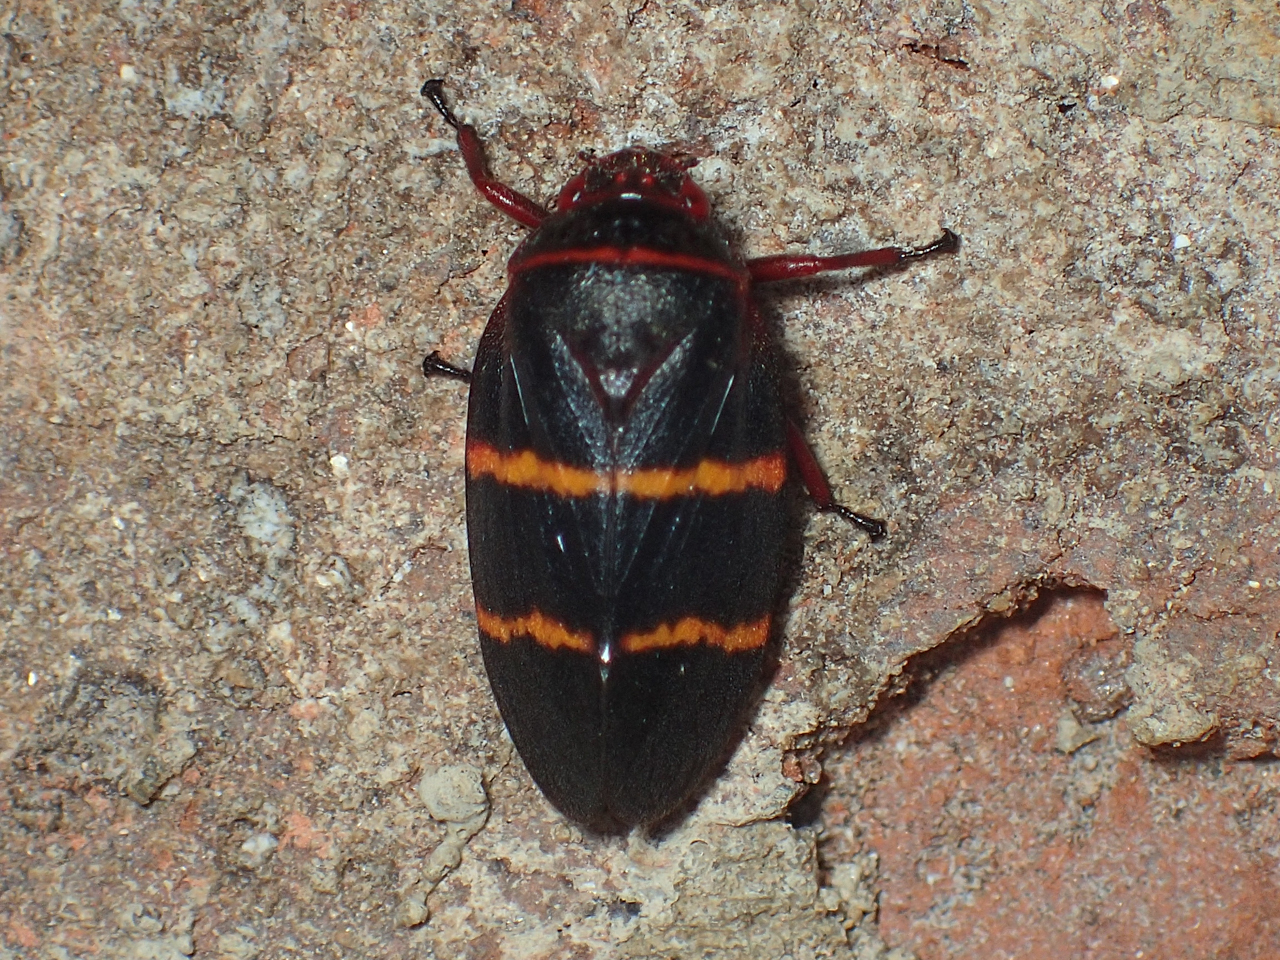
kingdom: Animalia
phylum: Arthropoda
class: Insecta
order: Hemiptera
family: Cercopidae
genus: Prosapia
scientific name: Prosapia bicincta
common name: Twolined spittlebug
